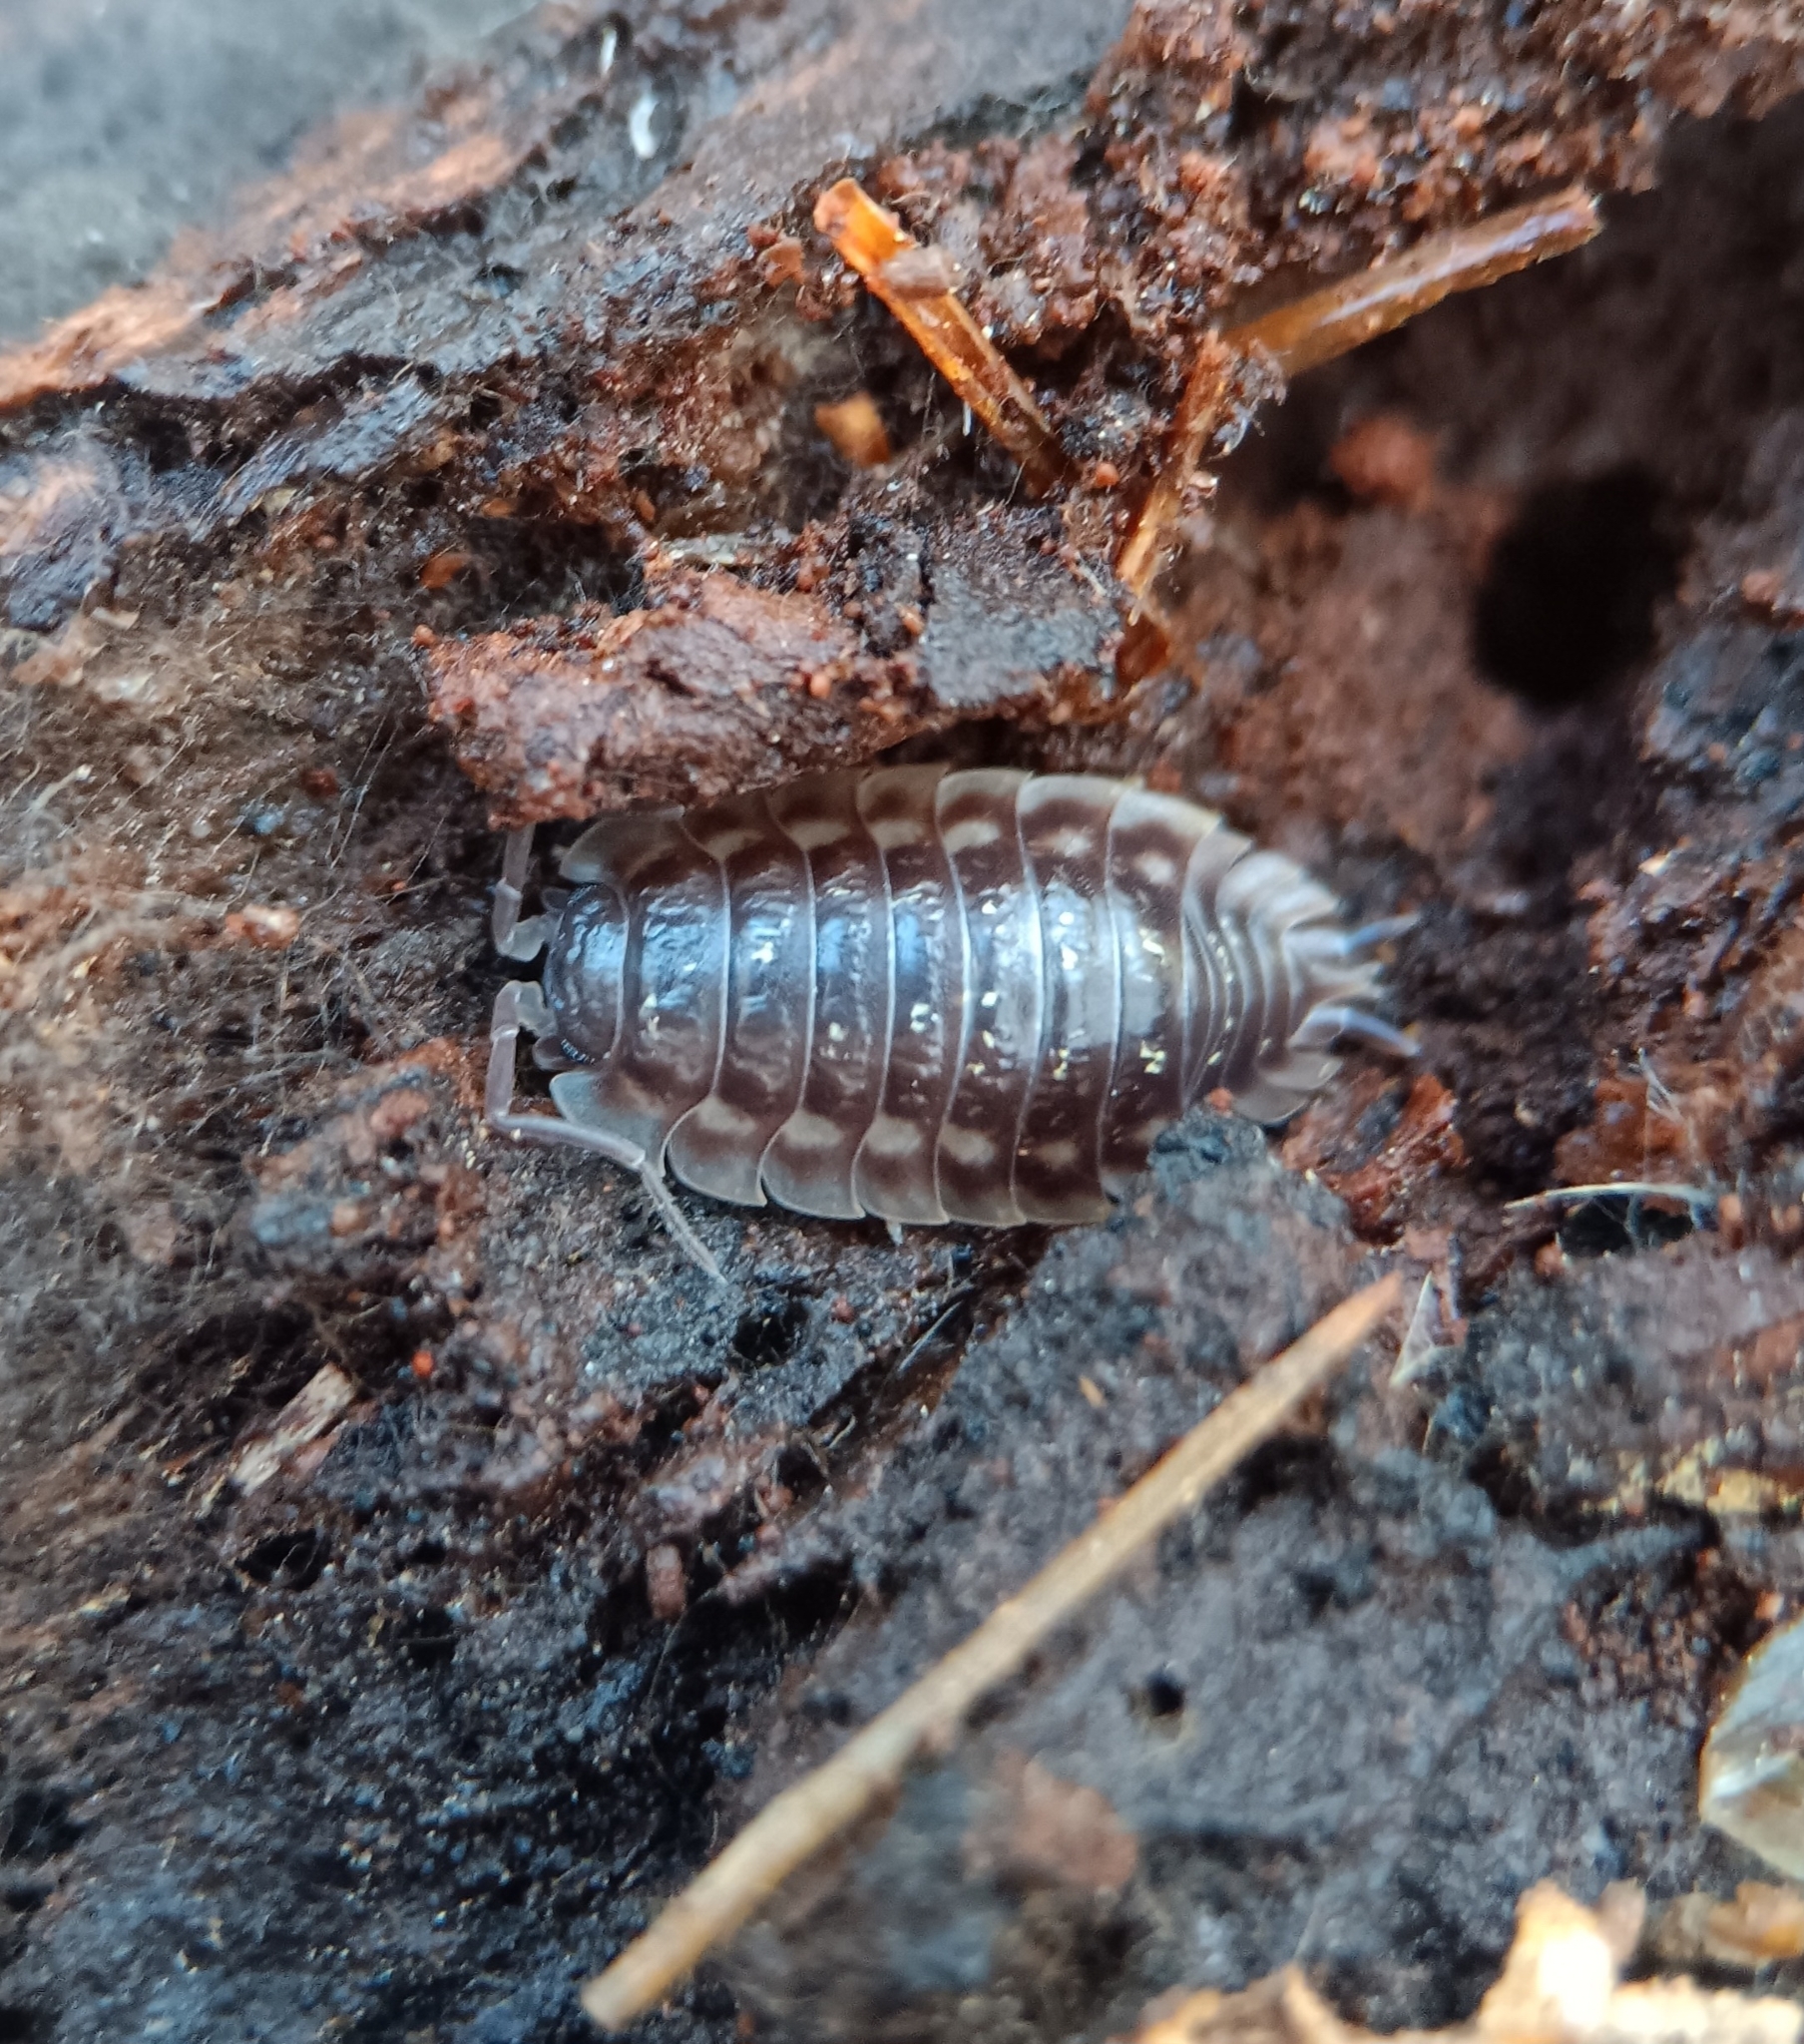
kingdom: Animalia
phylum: Arthropoda
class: Malacostraca
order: Isopoda
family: Oniscidae
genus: Oniscus
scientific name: Oniscus asellus
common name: Common shiny woodlouse
